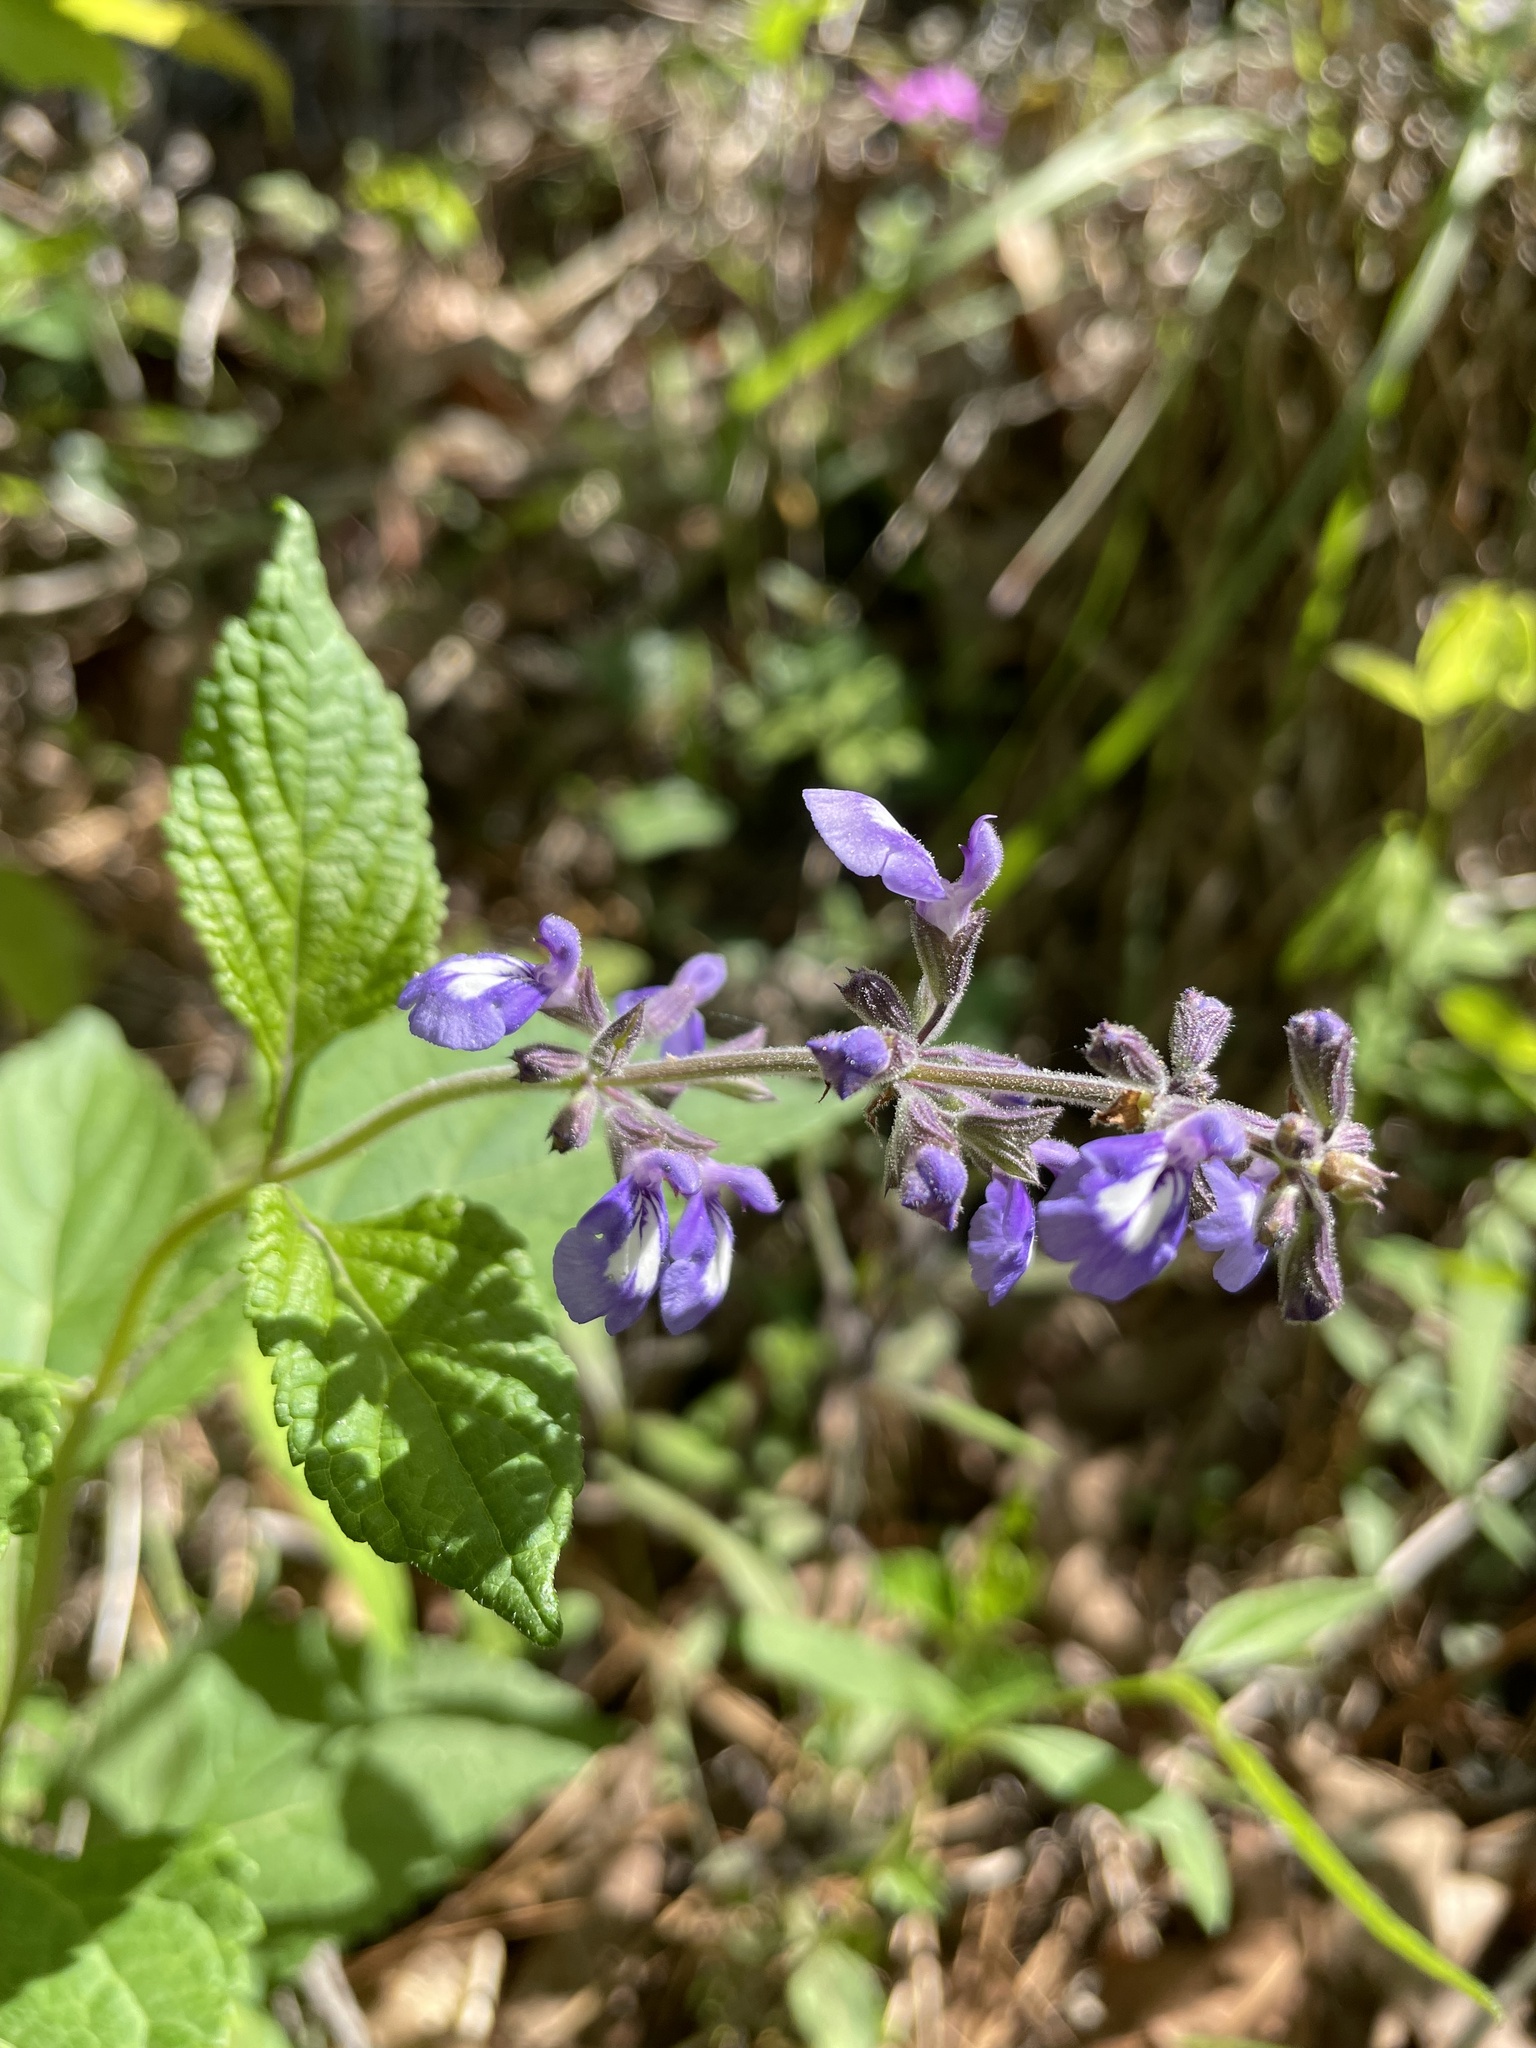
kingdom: Plantae
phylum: Tracheophyta
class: Magnoliopsida
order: Lamiales
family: Lamiaceae
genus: Salvia
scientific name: Salvia urticifolia
